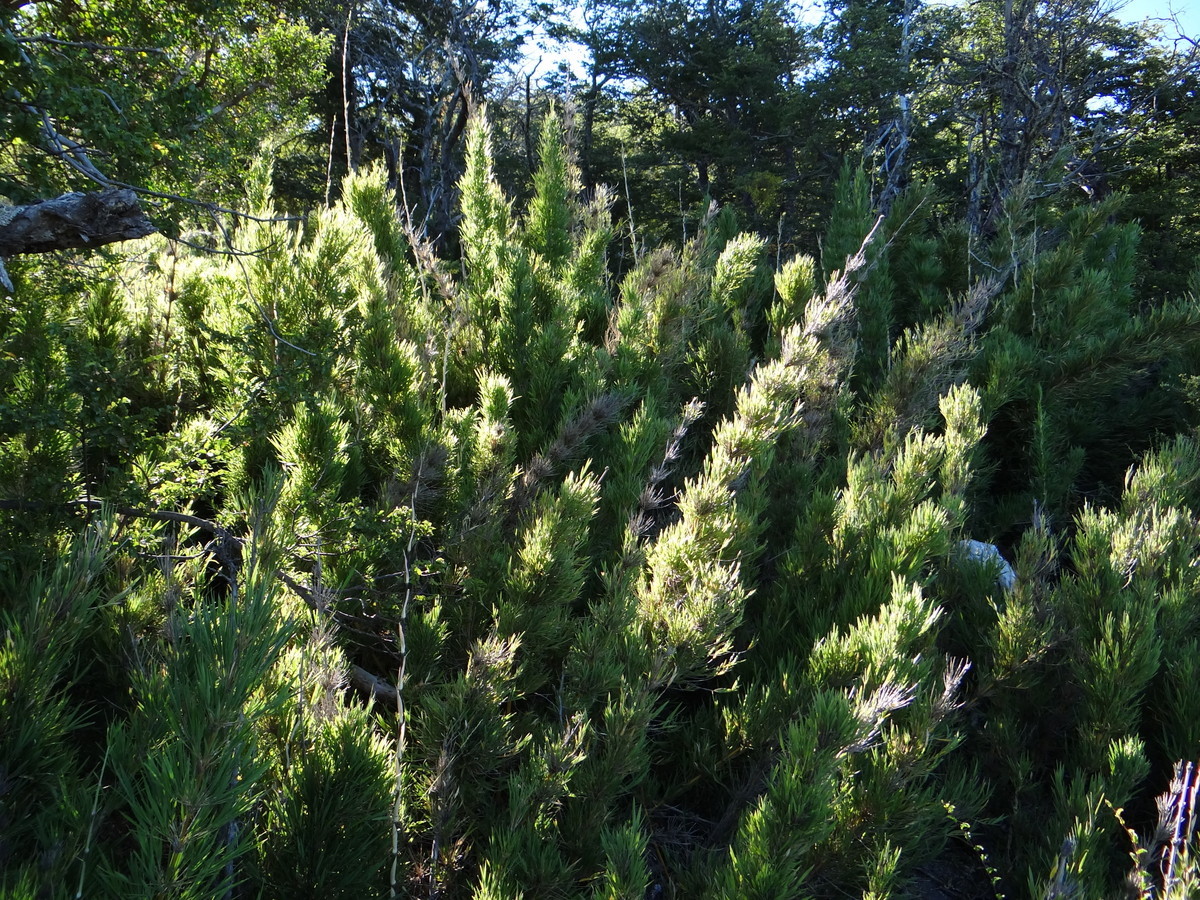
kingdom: Plantae
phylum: Tracheophyta
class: Liliopsida
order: Poales
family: Poaceae
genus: Chusquea
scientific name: Chusquea culeou
